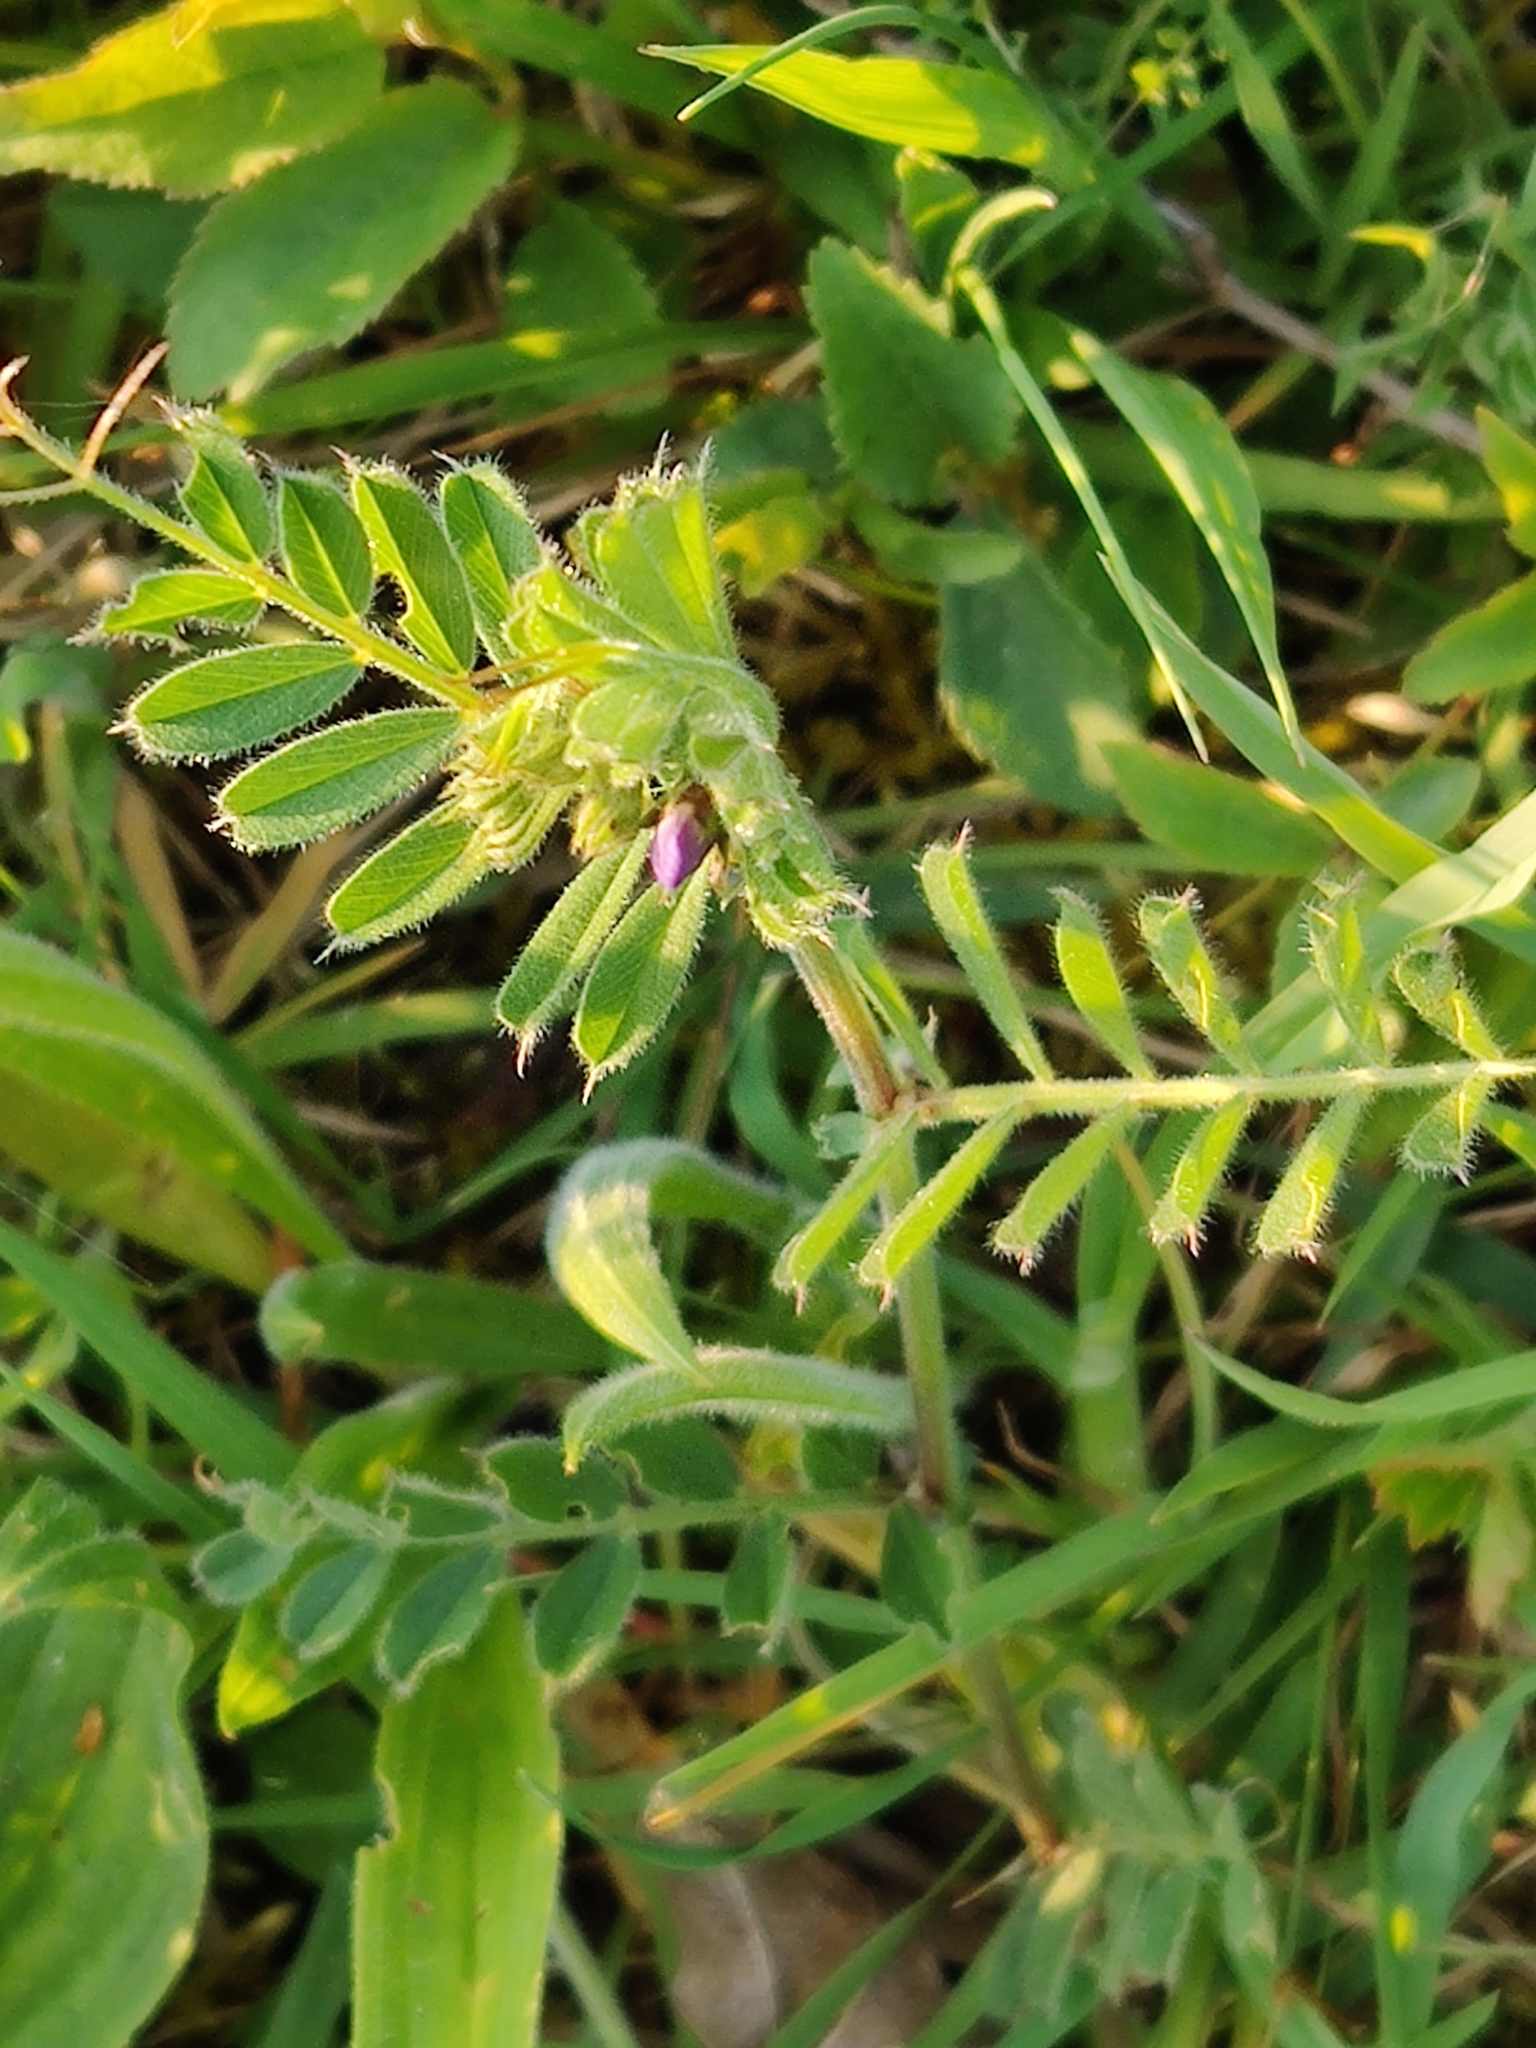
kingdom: Plantae
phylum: Tracheophyta
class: Magnoliopsida
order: Fabales
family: Fabaceae
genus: Vicia
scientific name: Vicia sativa
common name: Garden vetch
